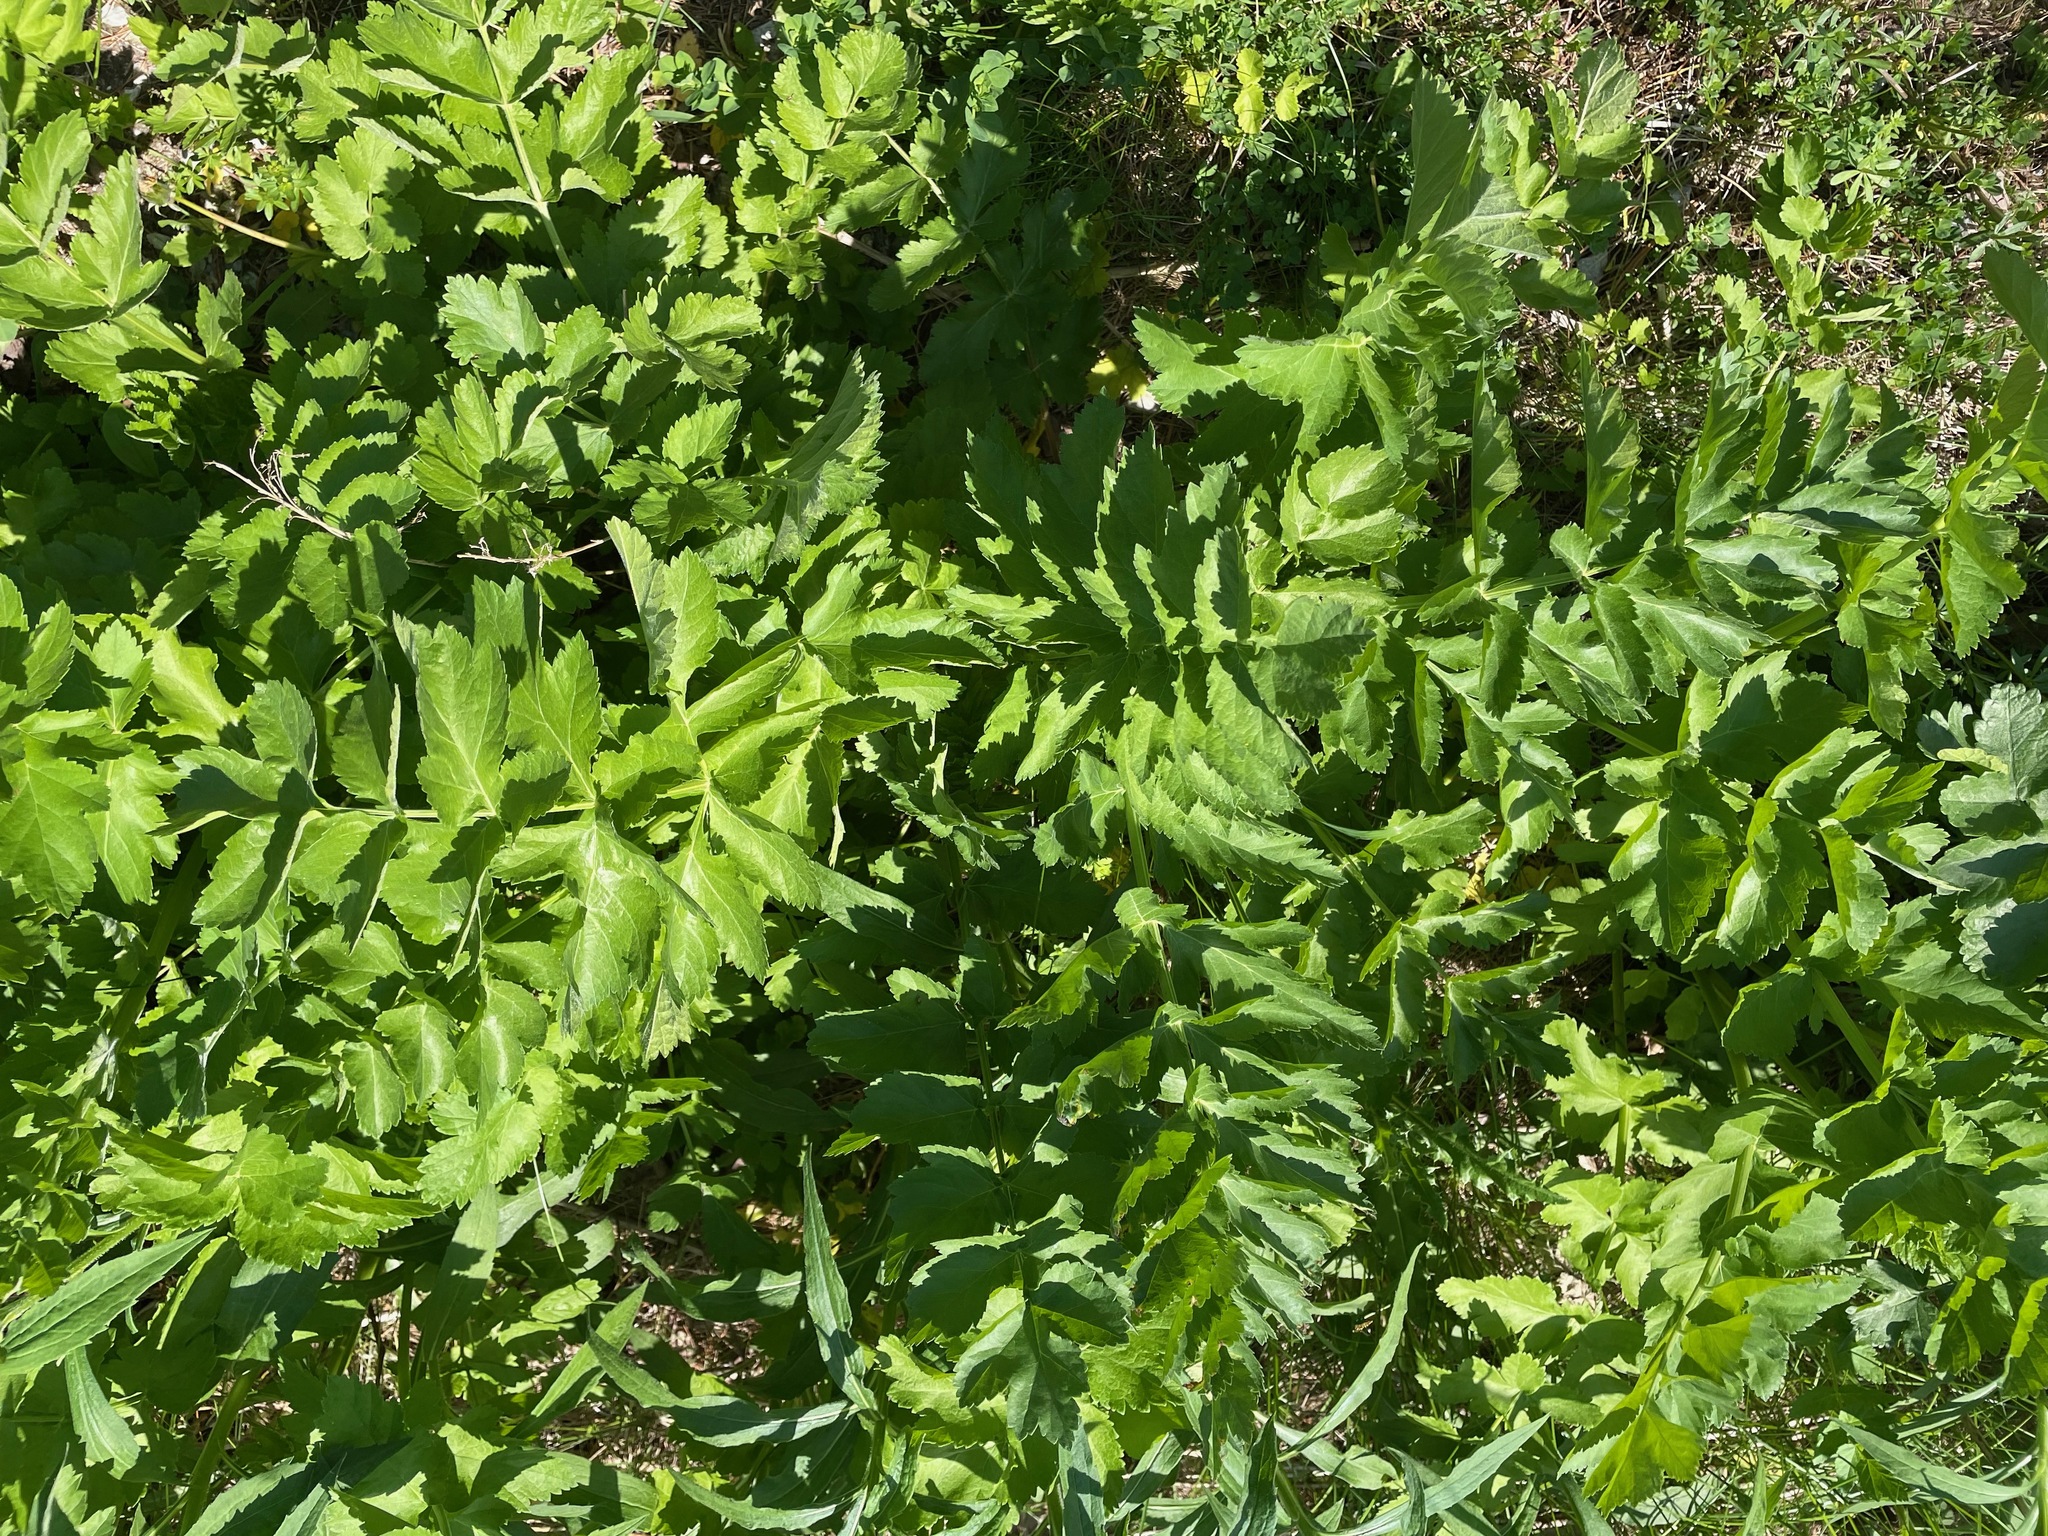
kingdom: Plantae
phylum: Tracheophyta
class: Magnoliopsida
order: Apiales
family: Apiaceae
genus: Pastinaca
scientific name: Pastinaca sativa
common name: Wild parsnip
